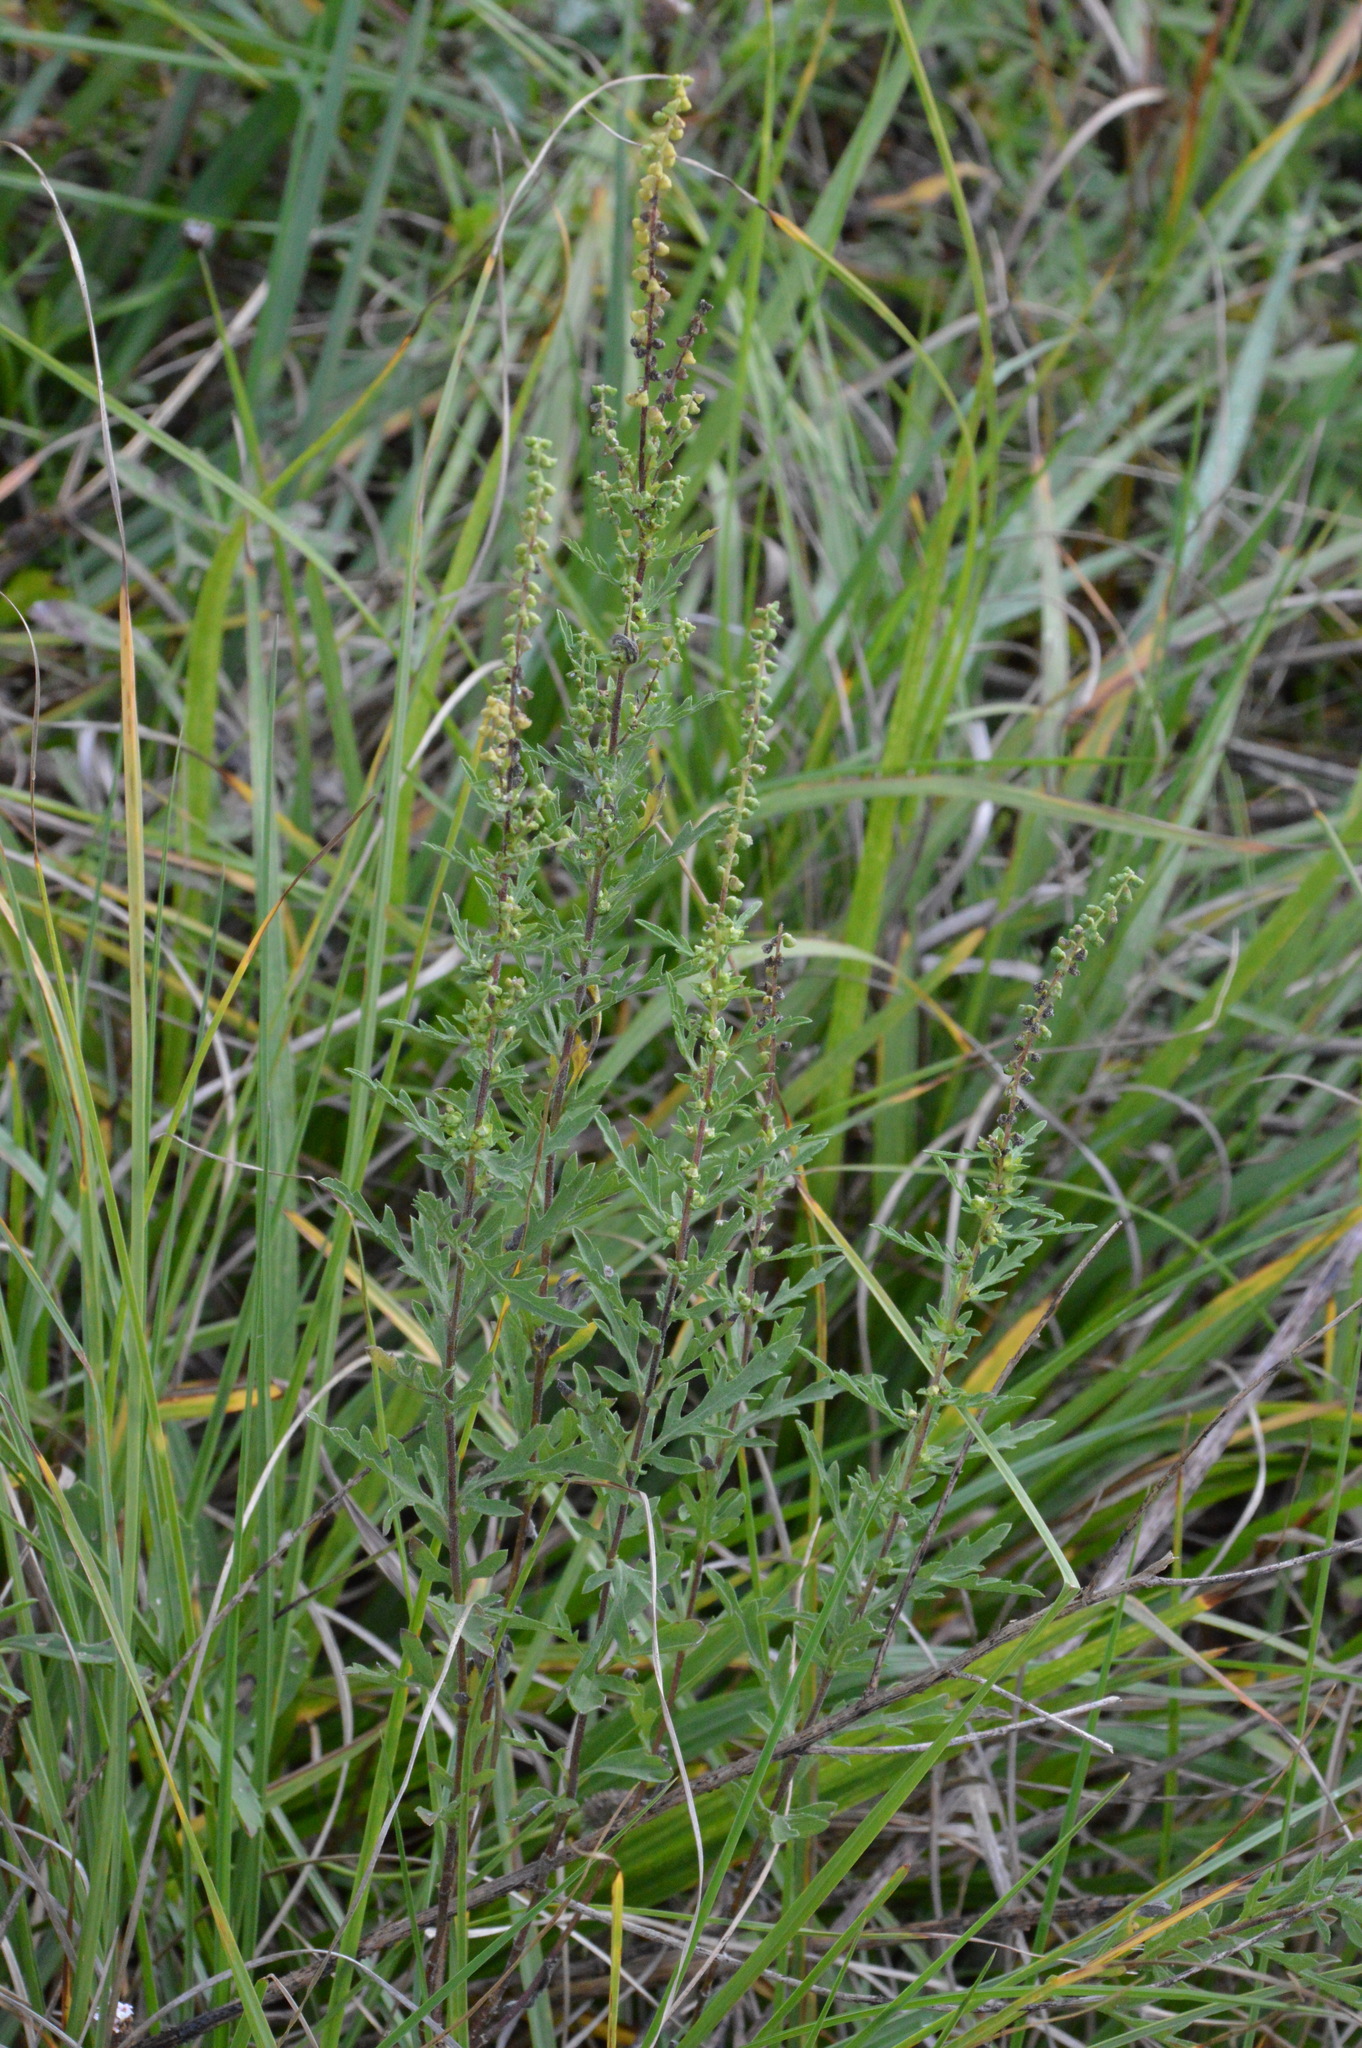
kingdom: Plantae
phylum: Tracheophyta
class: Magnoliopsida
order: Asterales
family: Asteraceae
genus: Ambrosia
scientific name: Ambrosia psilostachya
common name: Perennial ragweed
